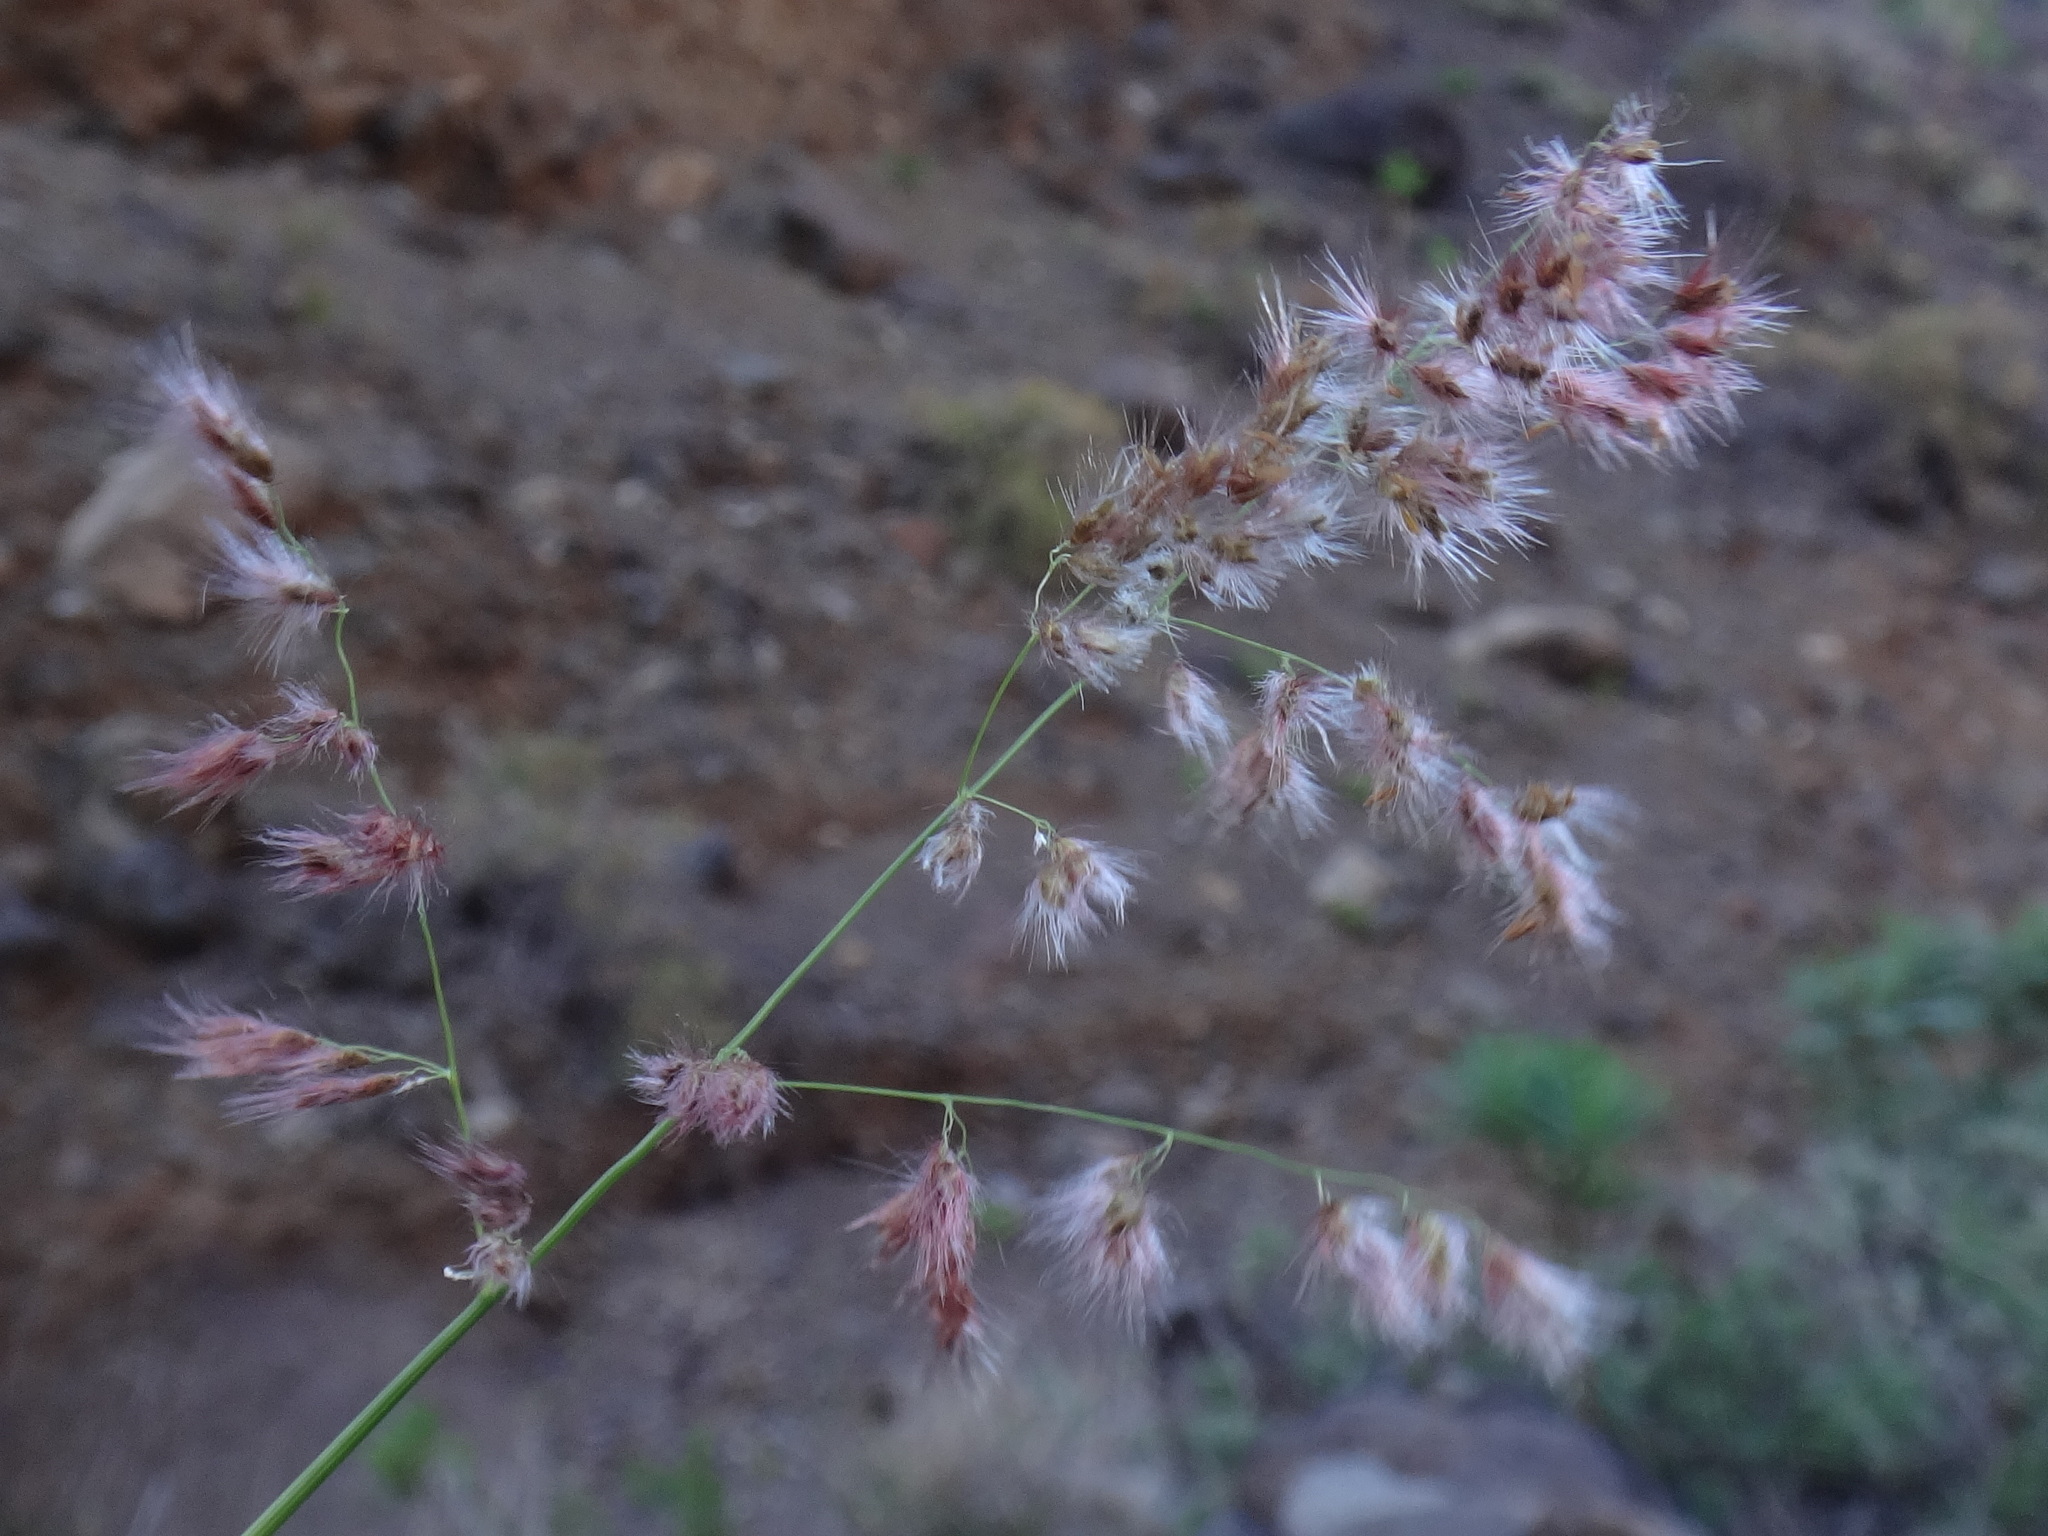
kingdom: Plantae
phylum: Tracheophyta
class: Liliopsida
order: Poales
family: Poaceae
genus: Tricholaena
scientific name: Tricholaena teneriffae
